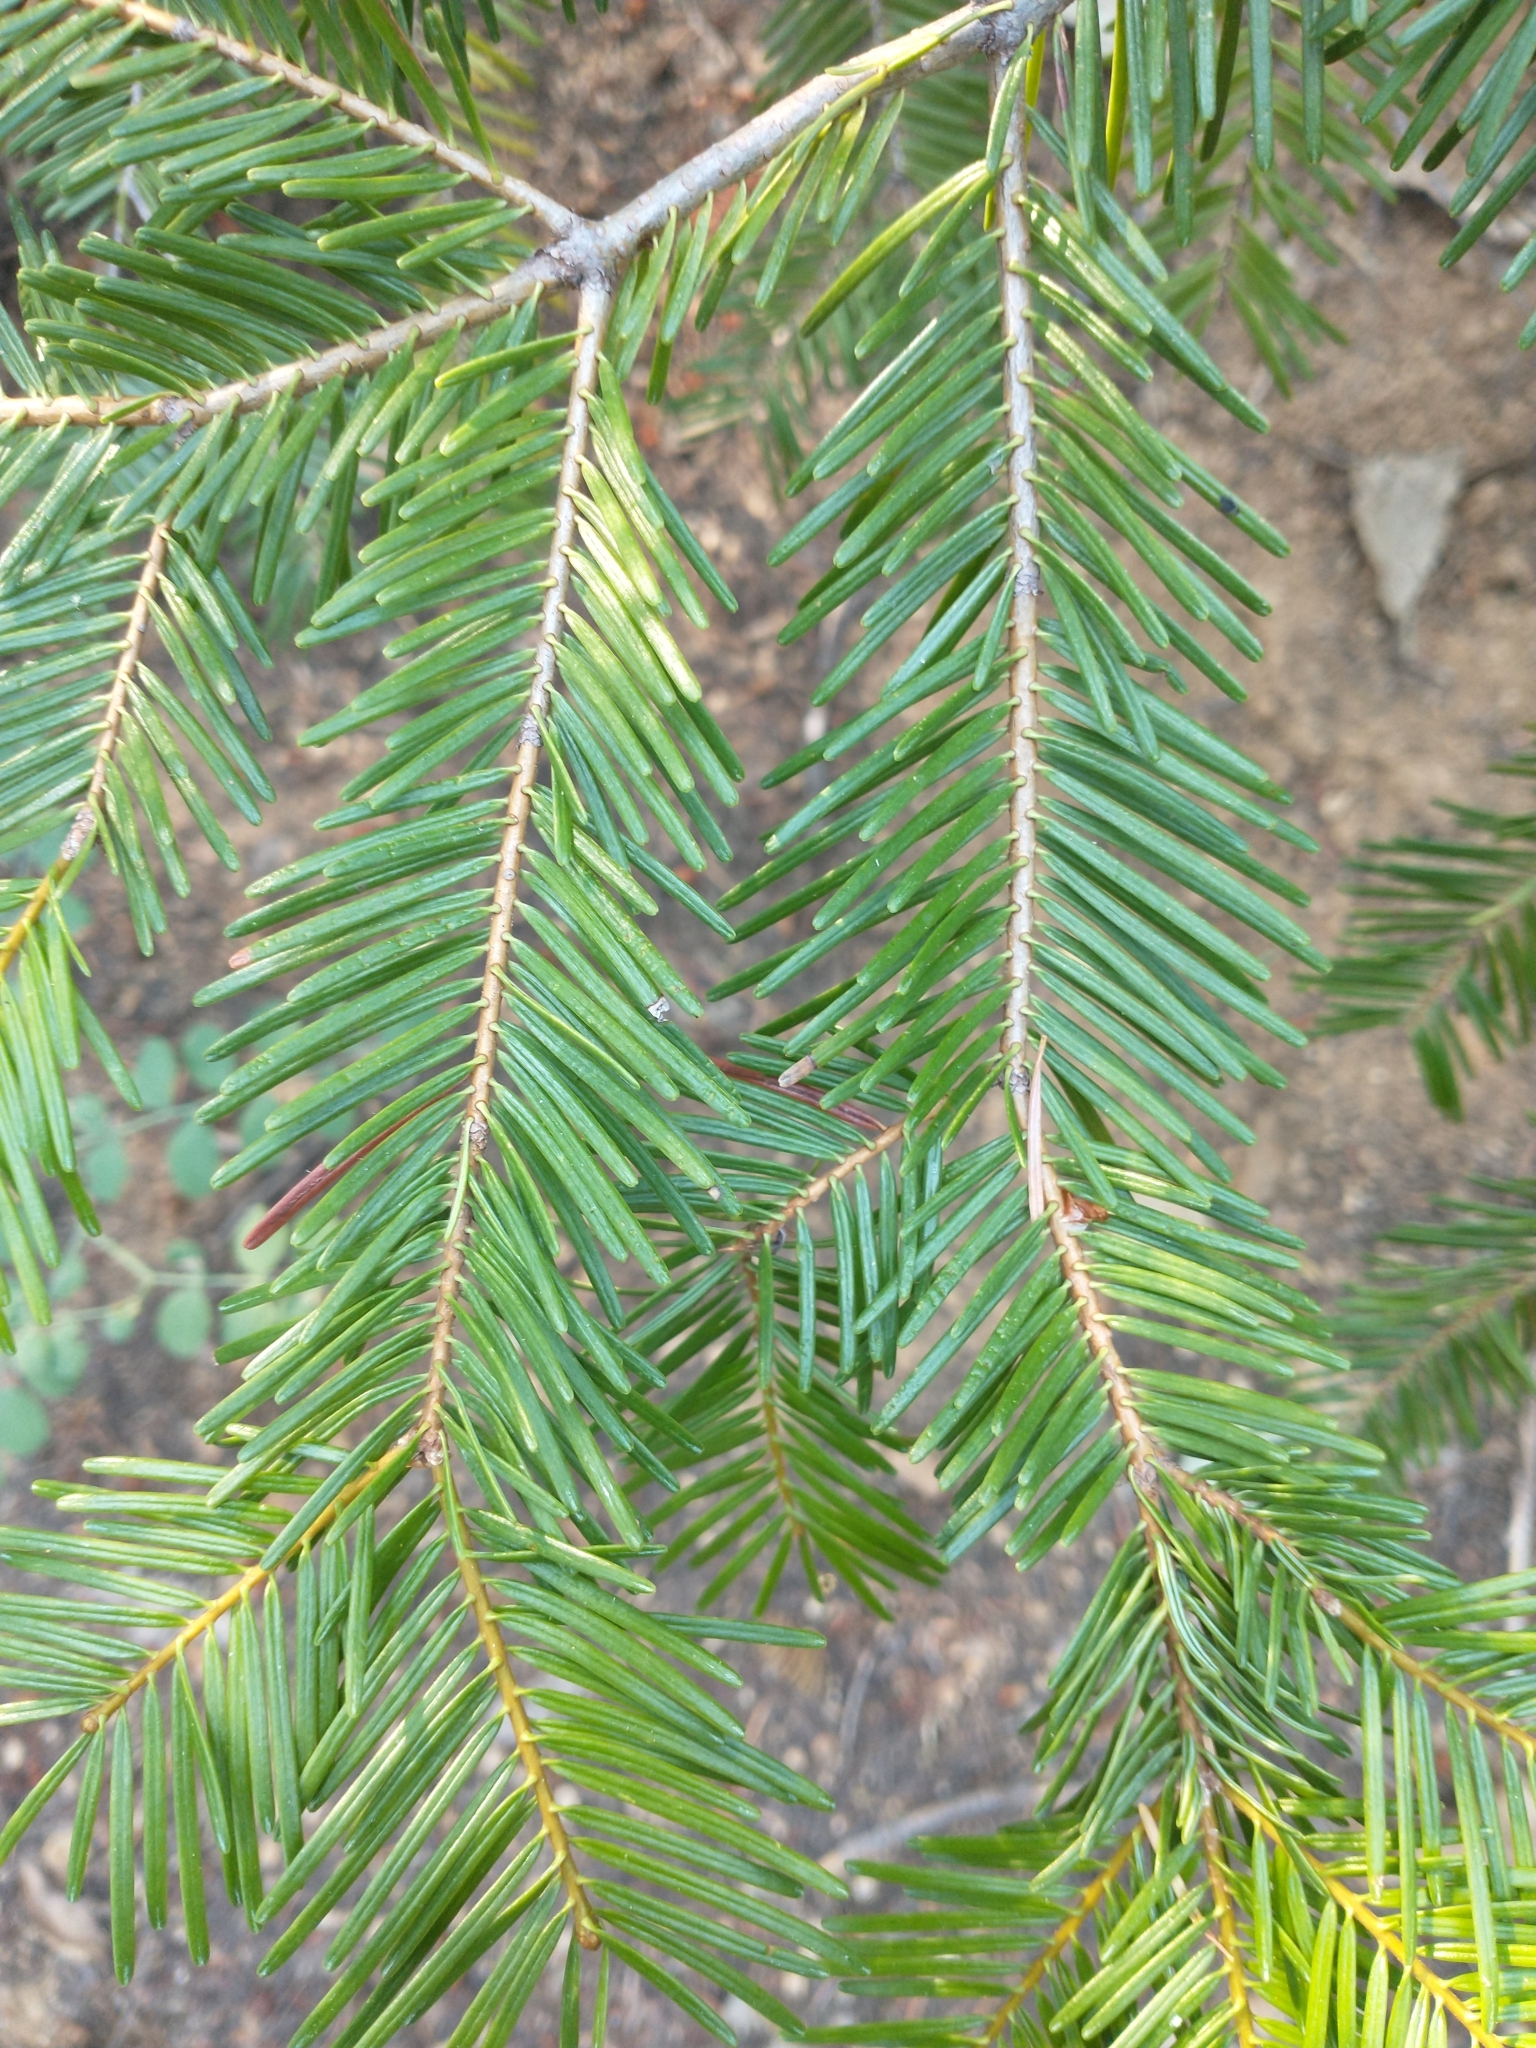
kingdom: Plantae
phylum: Tracheophyta
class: Pinopsida
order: Pinales
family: Pinaceae
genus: Abies
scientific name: Abies concolor
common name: Colorado fir
